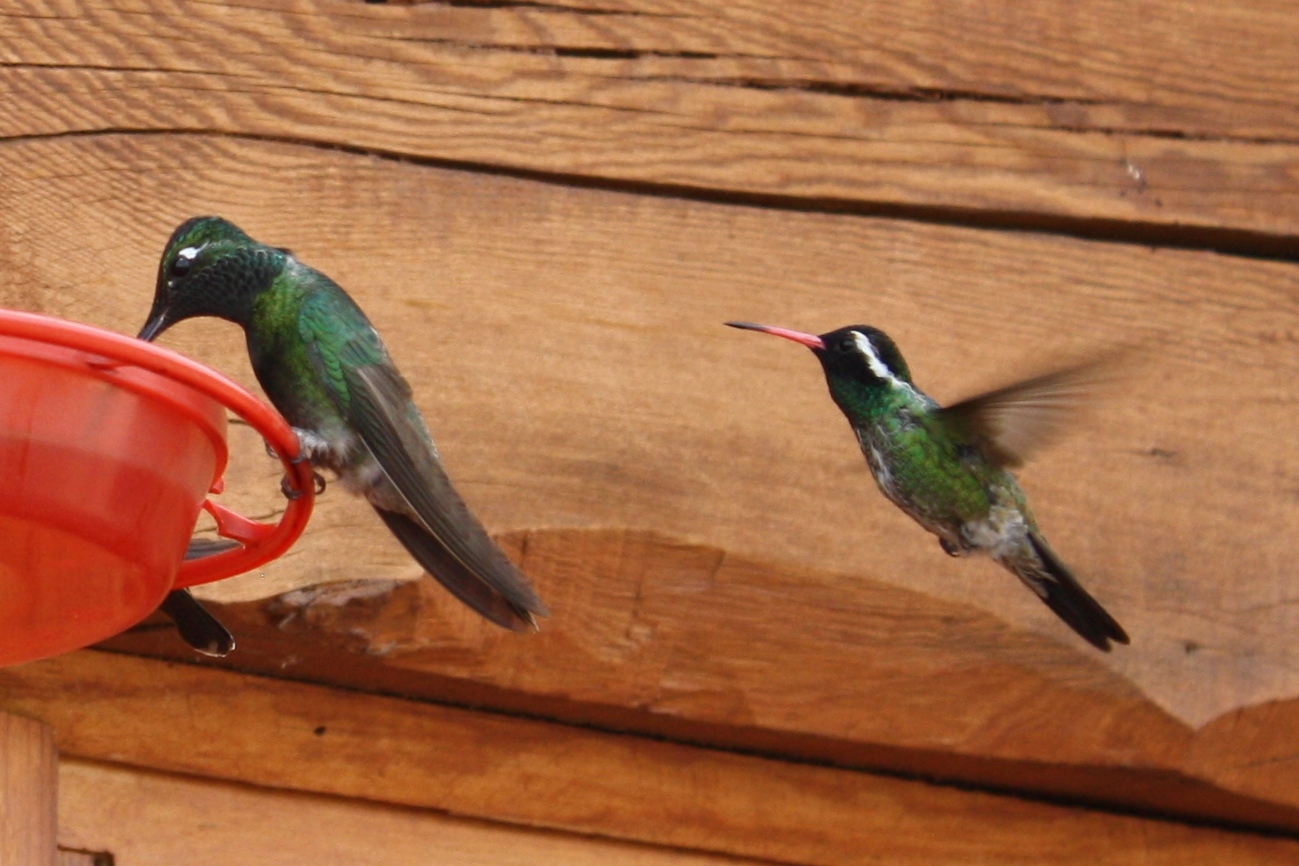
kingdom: Animalia
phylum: Chordata
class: Aves
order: Apodiformes
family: Trochilidae
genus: Basilinna
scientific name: Basilinna leucotis
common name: White-eared hummingbird
